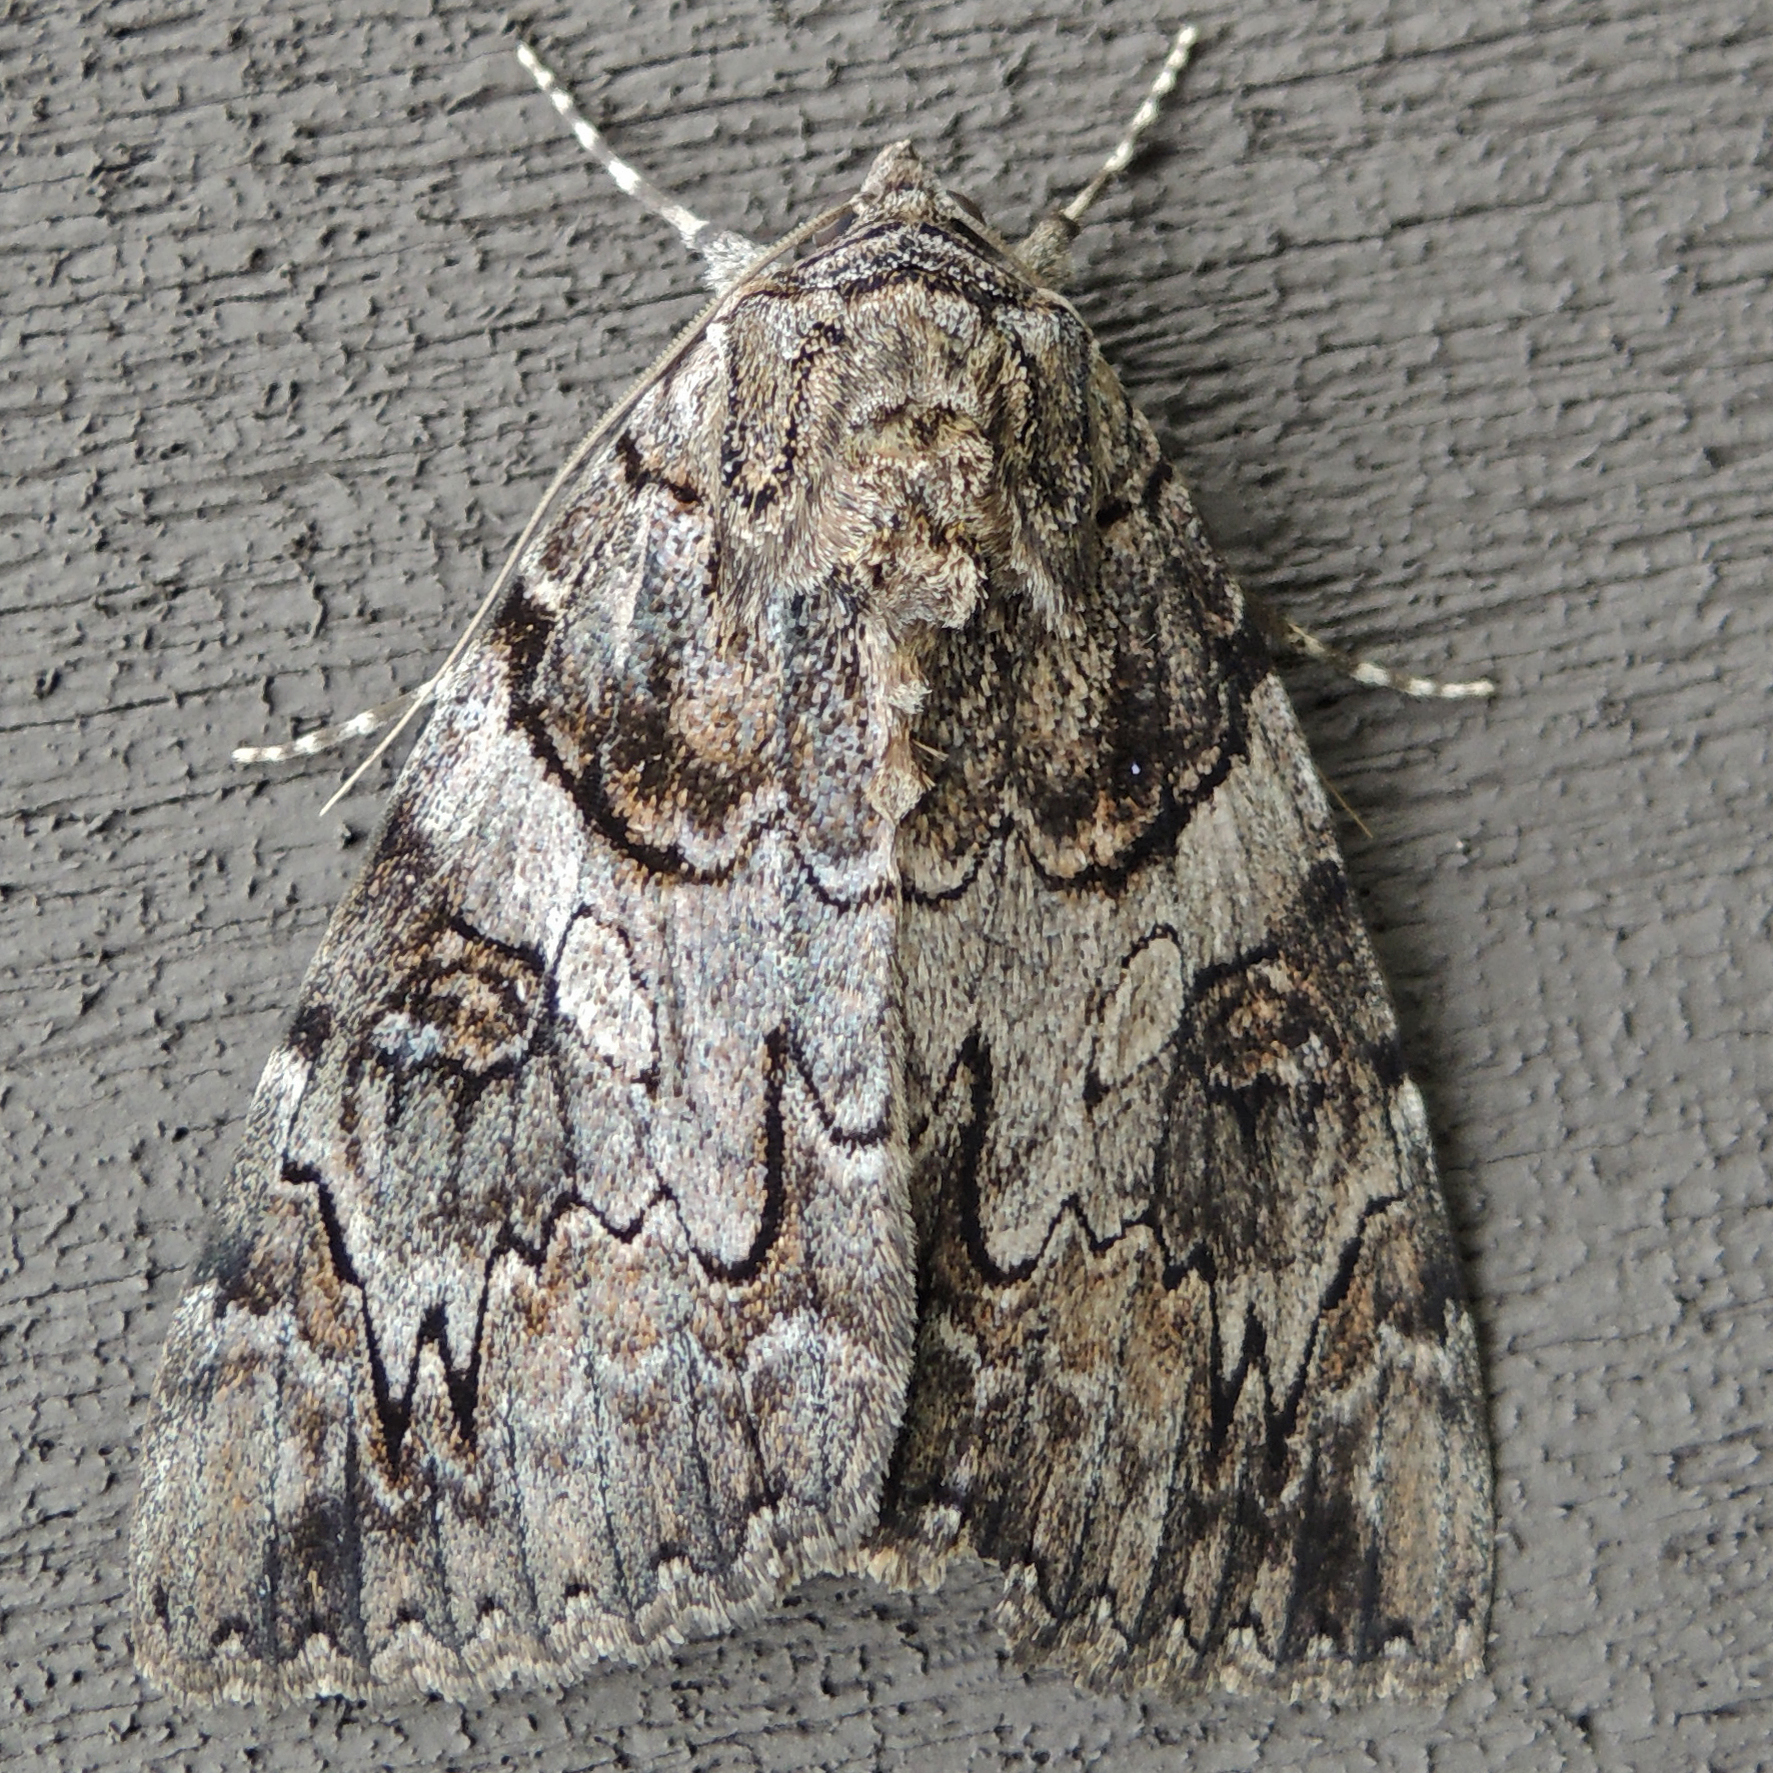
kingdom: Animalia
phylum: Arthropoda
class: Insecta
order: Lepidoptera
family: Erebidae
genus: Catocala
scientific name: Catocala piatrix
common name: The penitent underwing
